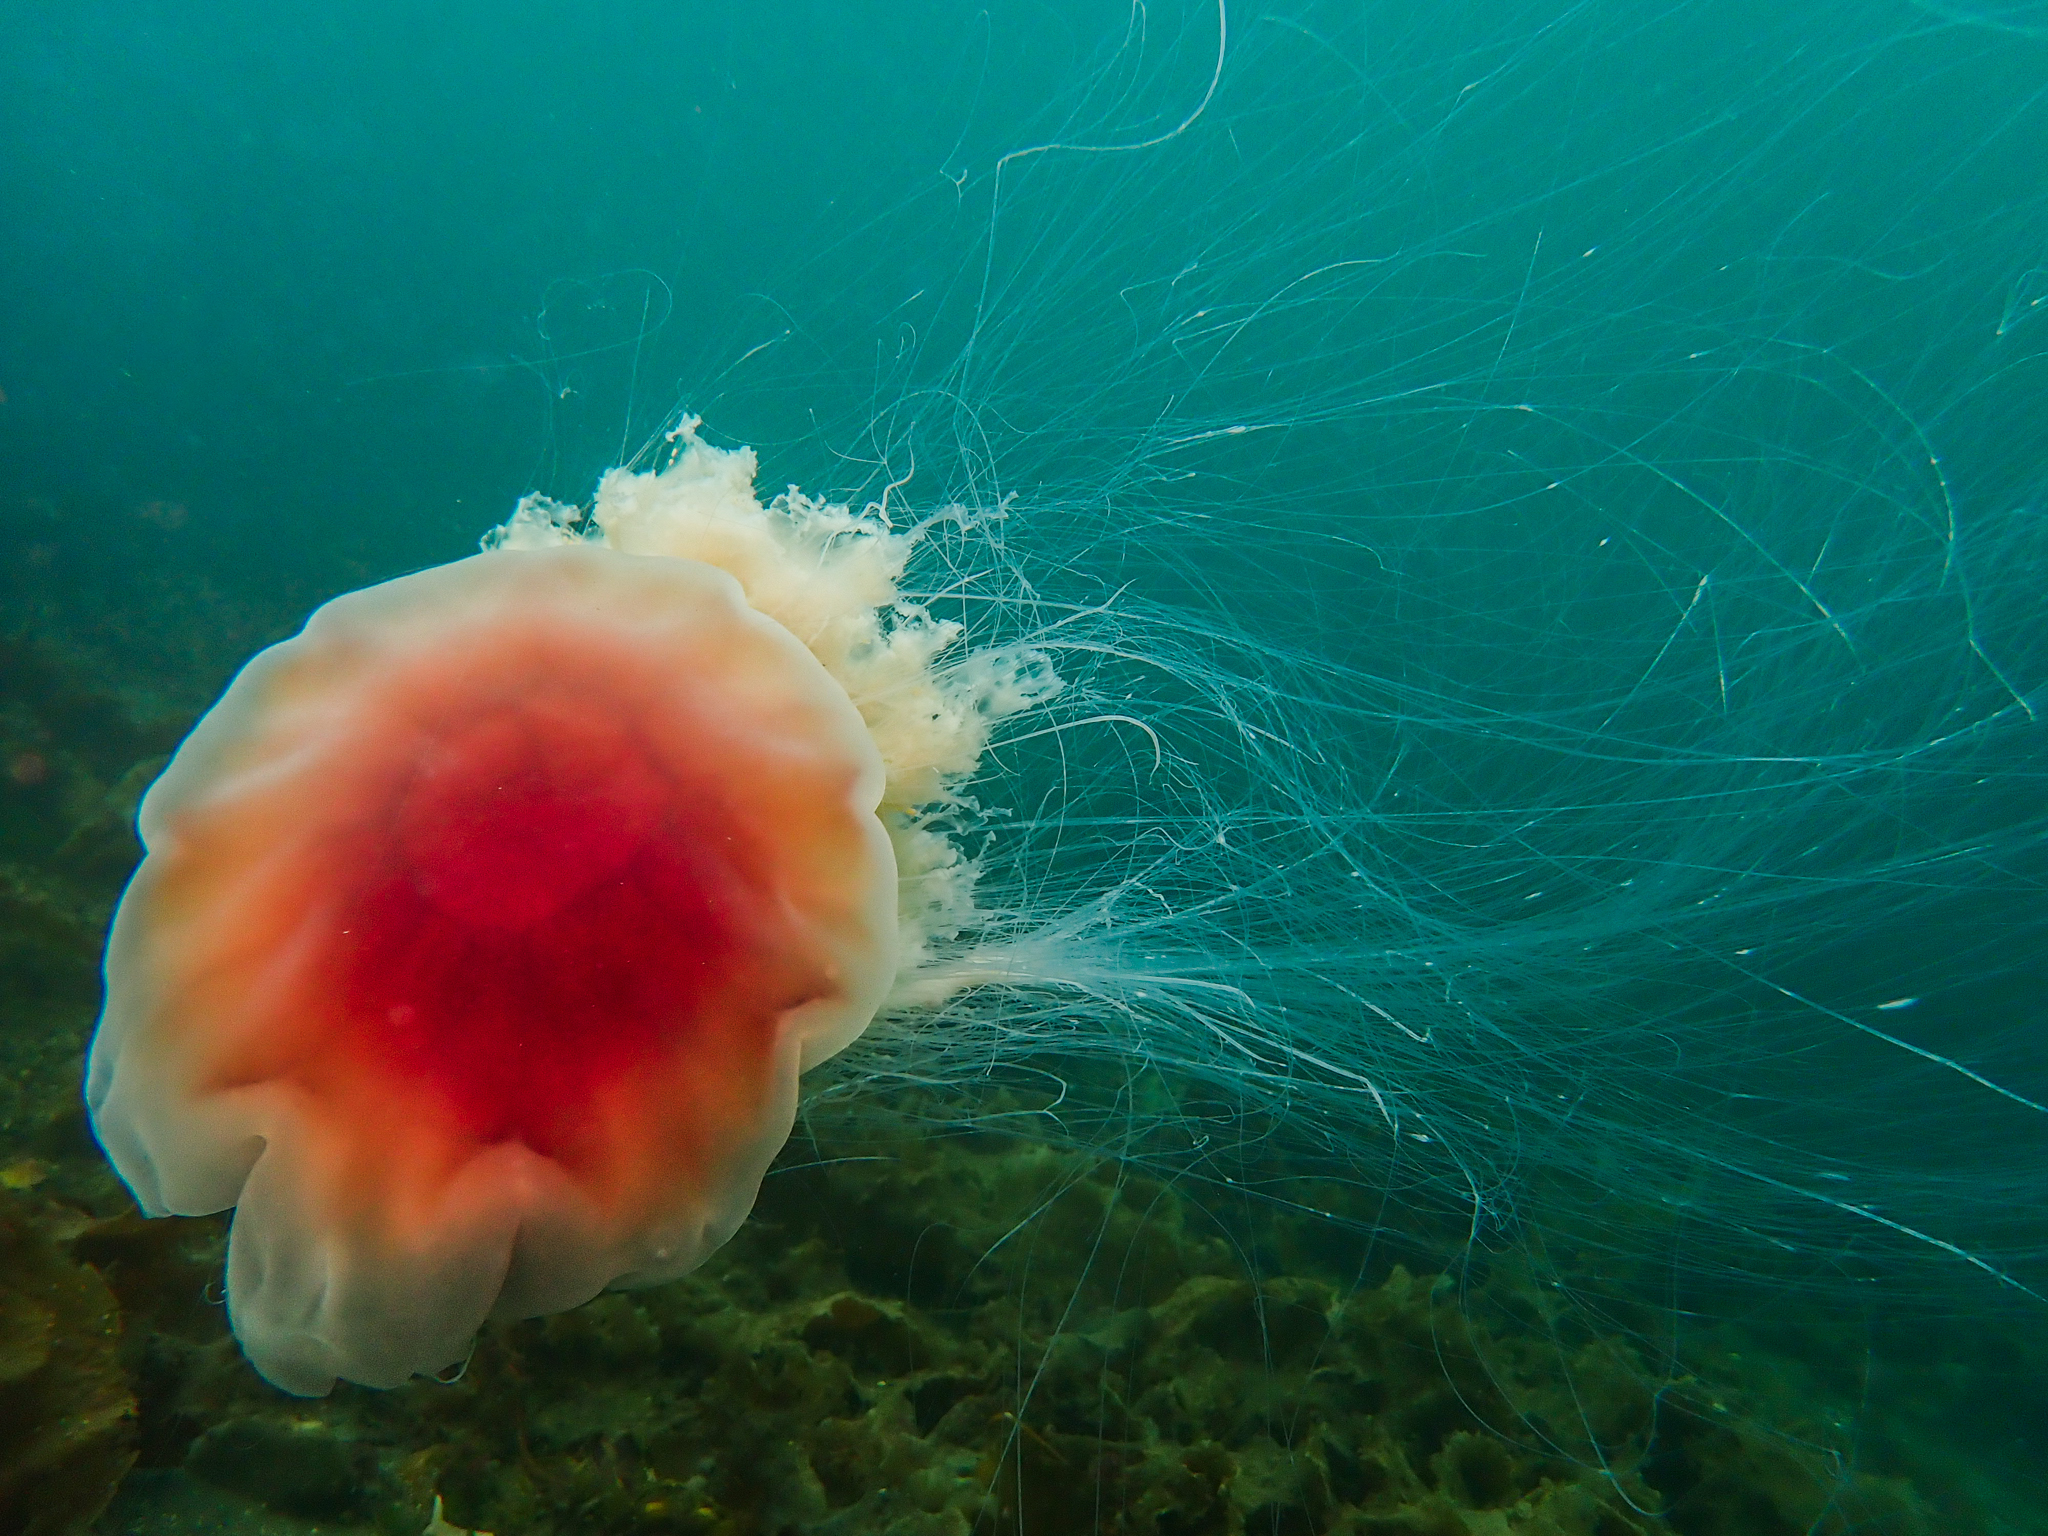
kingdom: Animalia
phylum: Cnidaria
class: Scyphozoa
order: Semaeostomeae
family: Cyaneidae
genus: Cyanea
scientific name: Cyanea capillata
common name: Lion's mane jellyfish
